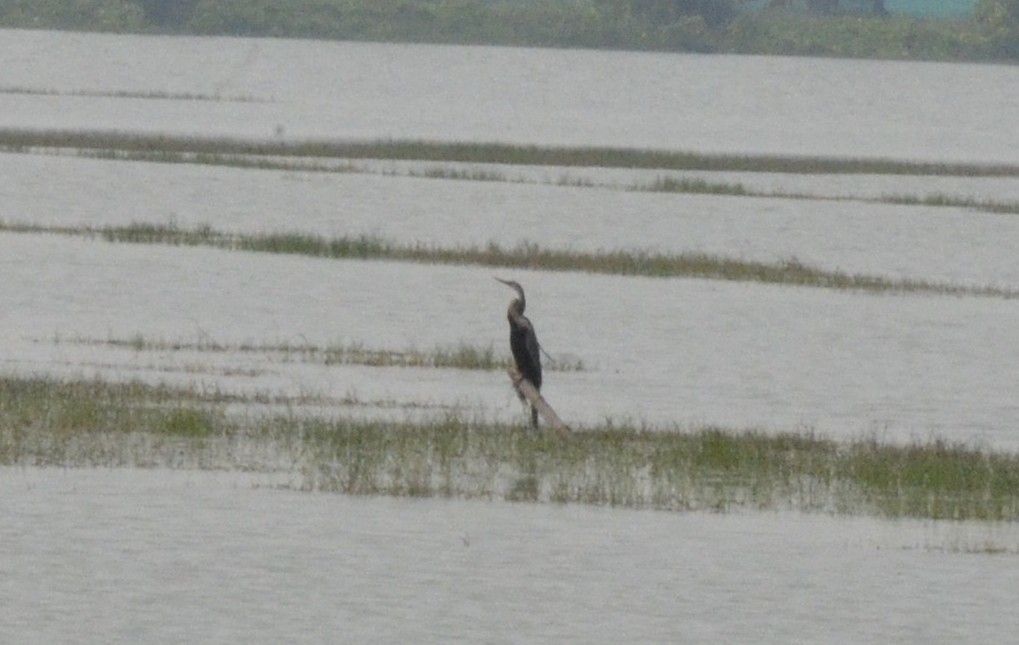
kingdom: Animalia
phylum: Chordata
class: Aves
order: Suliformes
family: Anhingidae
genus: Anhinga
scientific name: Anhinga melanogaster
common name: Oriental darter
